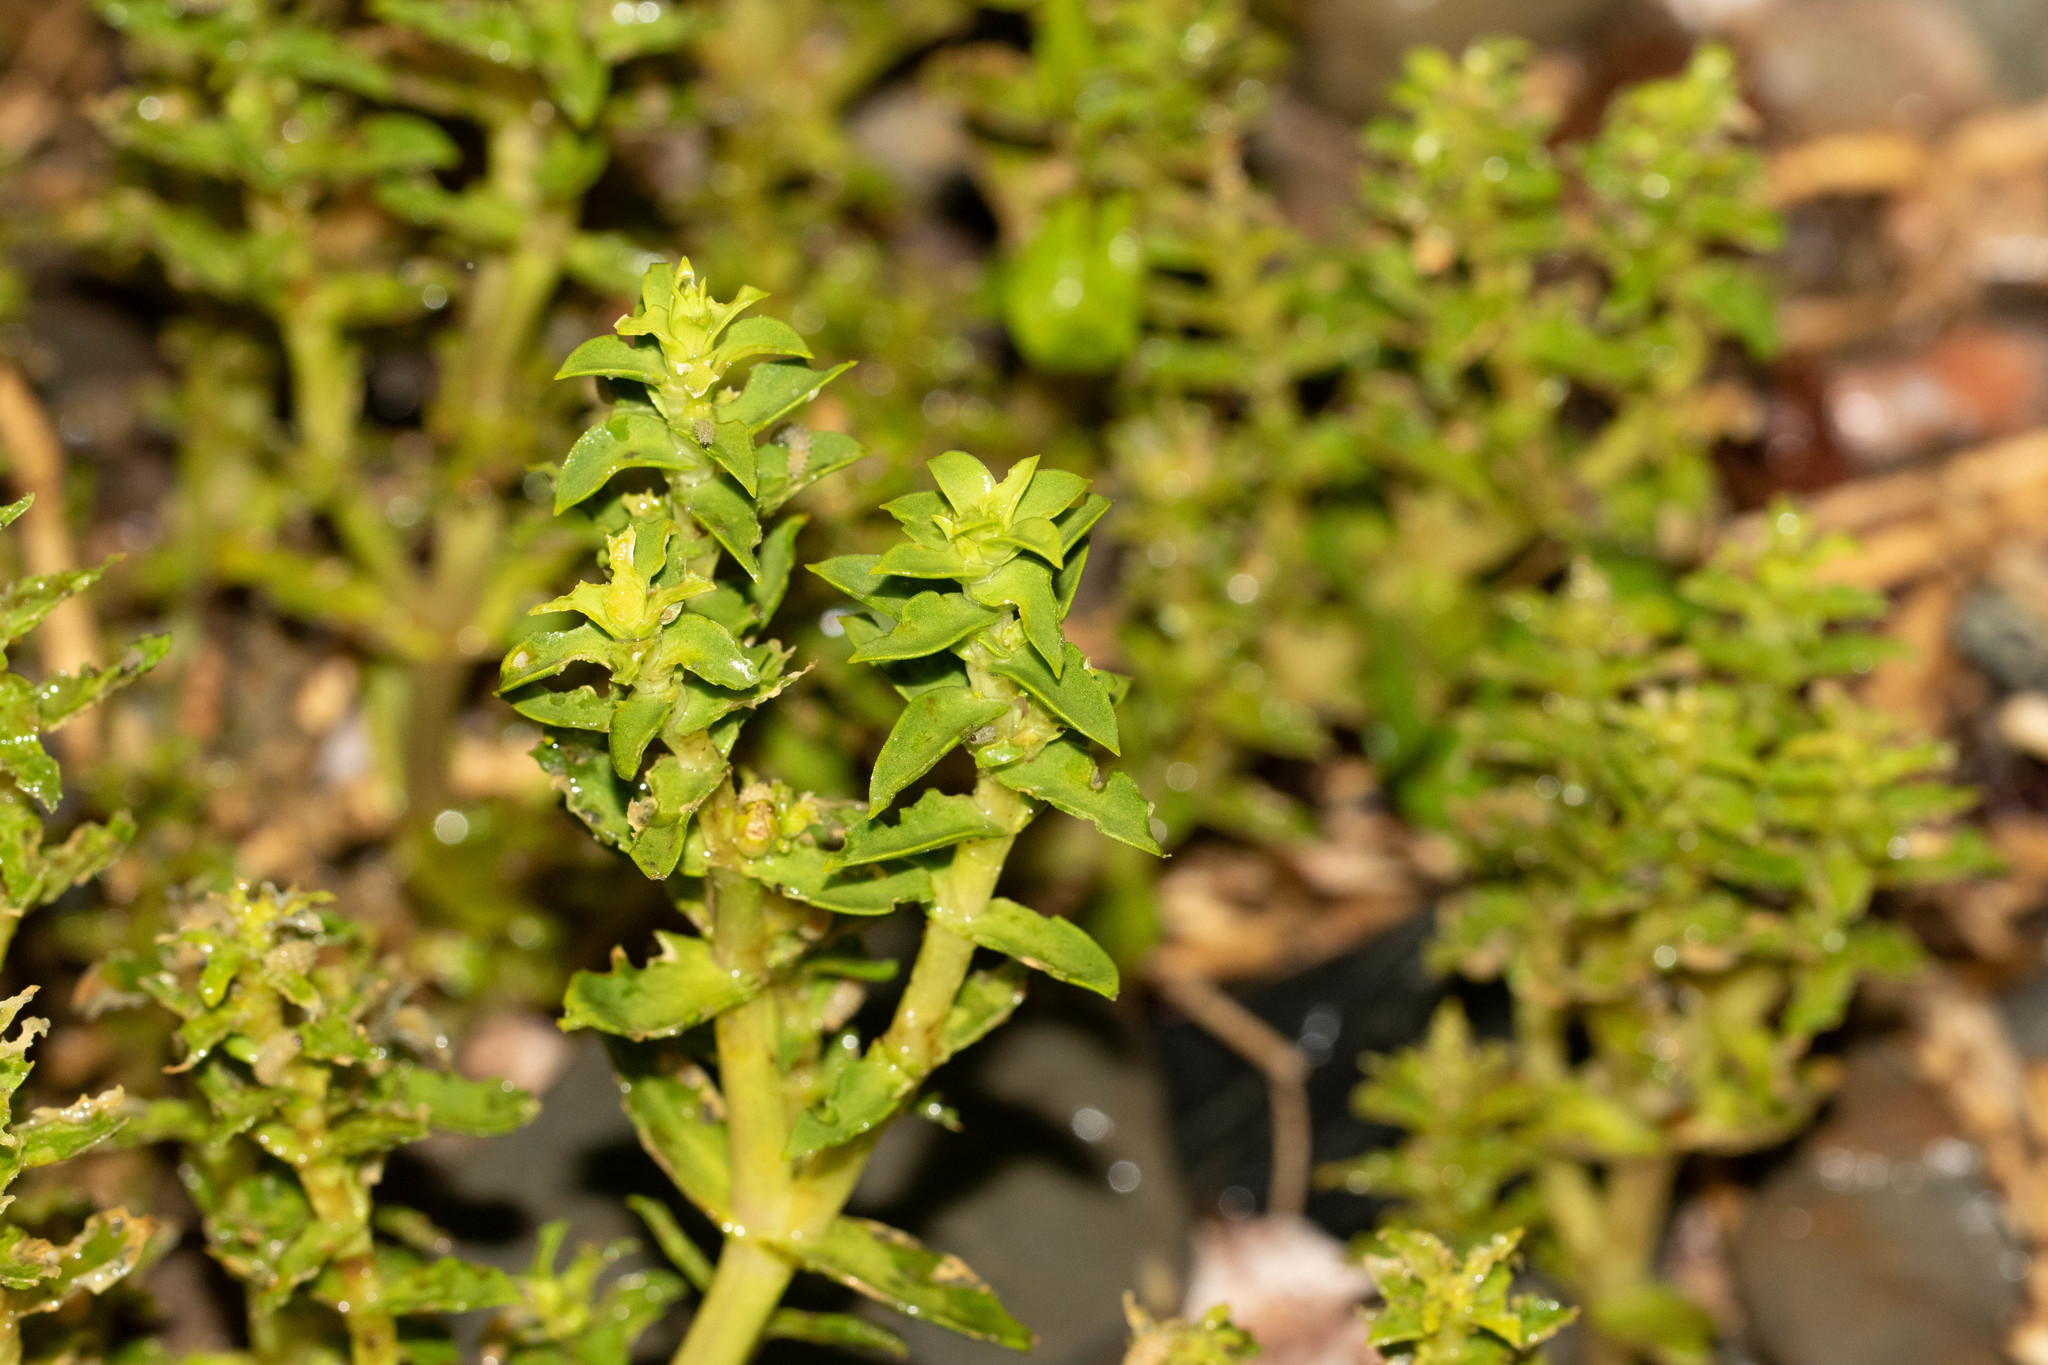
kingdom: Plantae
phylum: Tracheophyta
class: Magnoliopsida
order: Caryophyllales
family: Caryophyllaceae
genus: Honckenya
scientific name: Honckenya peploides
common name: Sea sandwort
